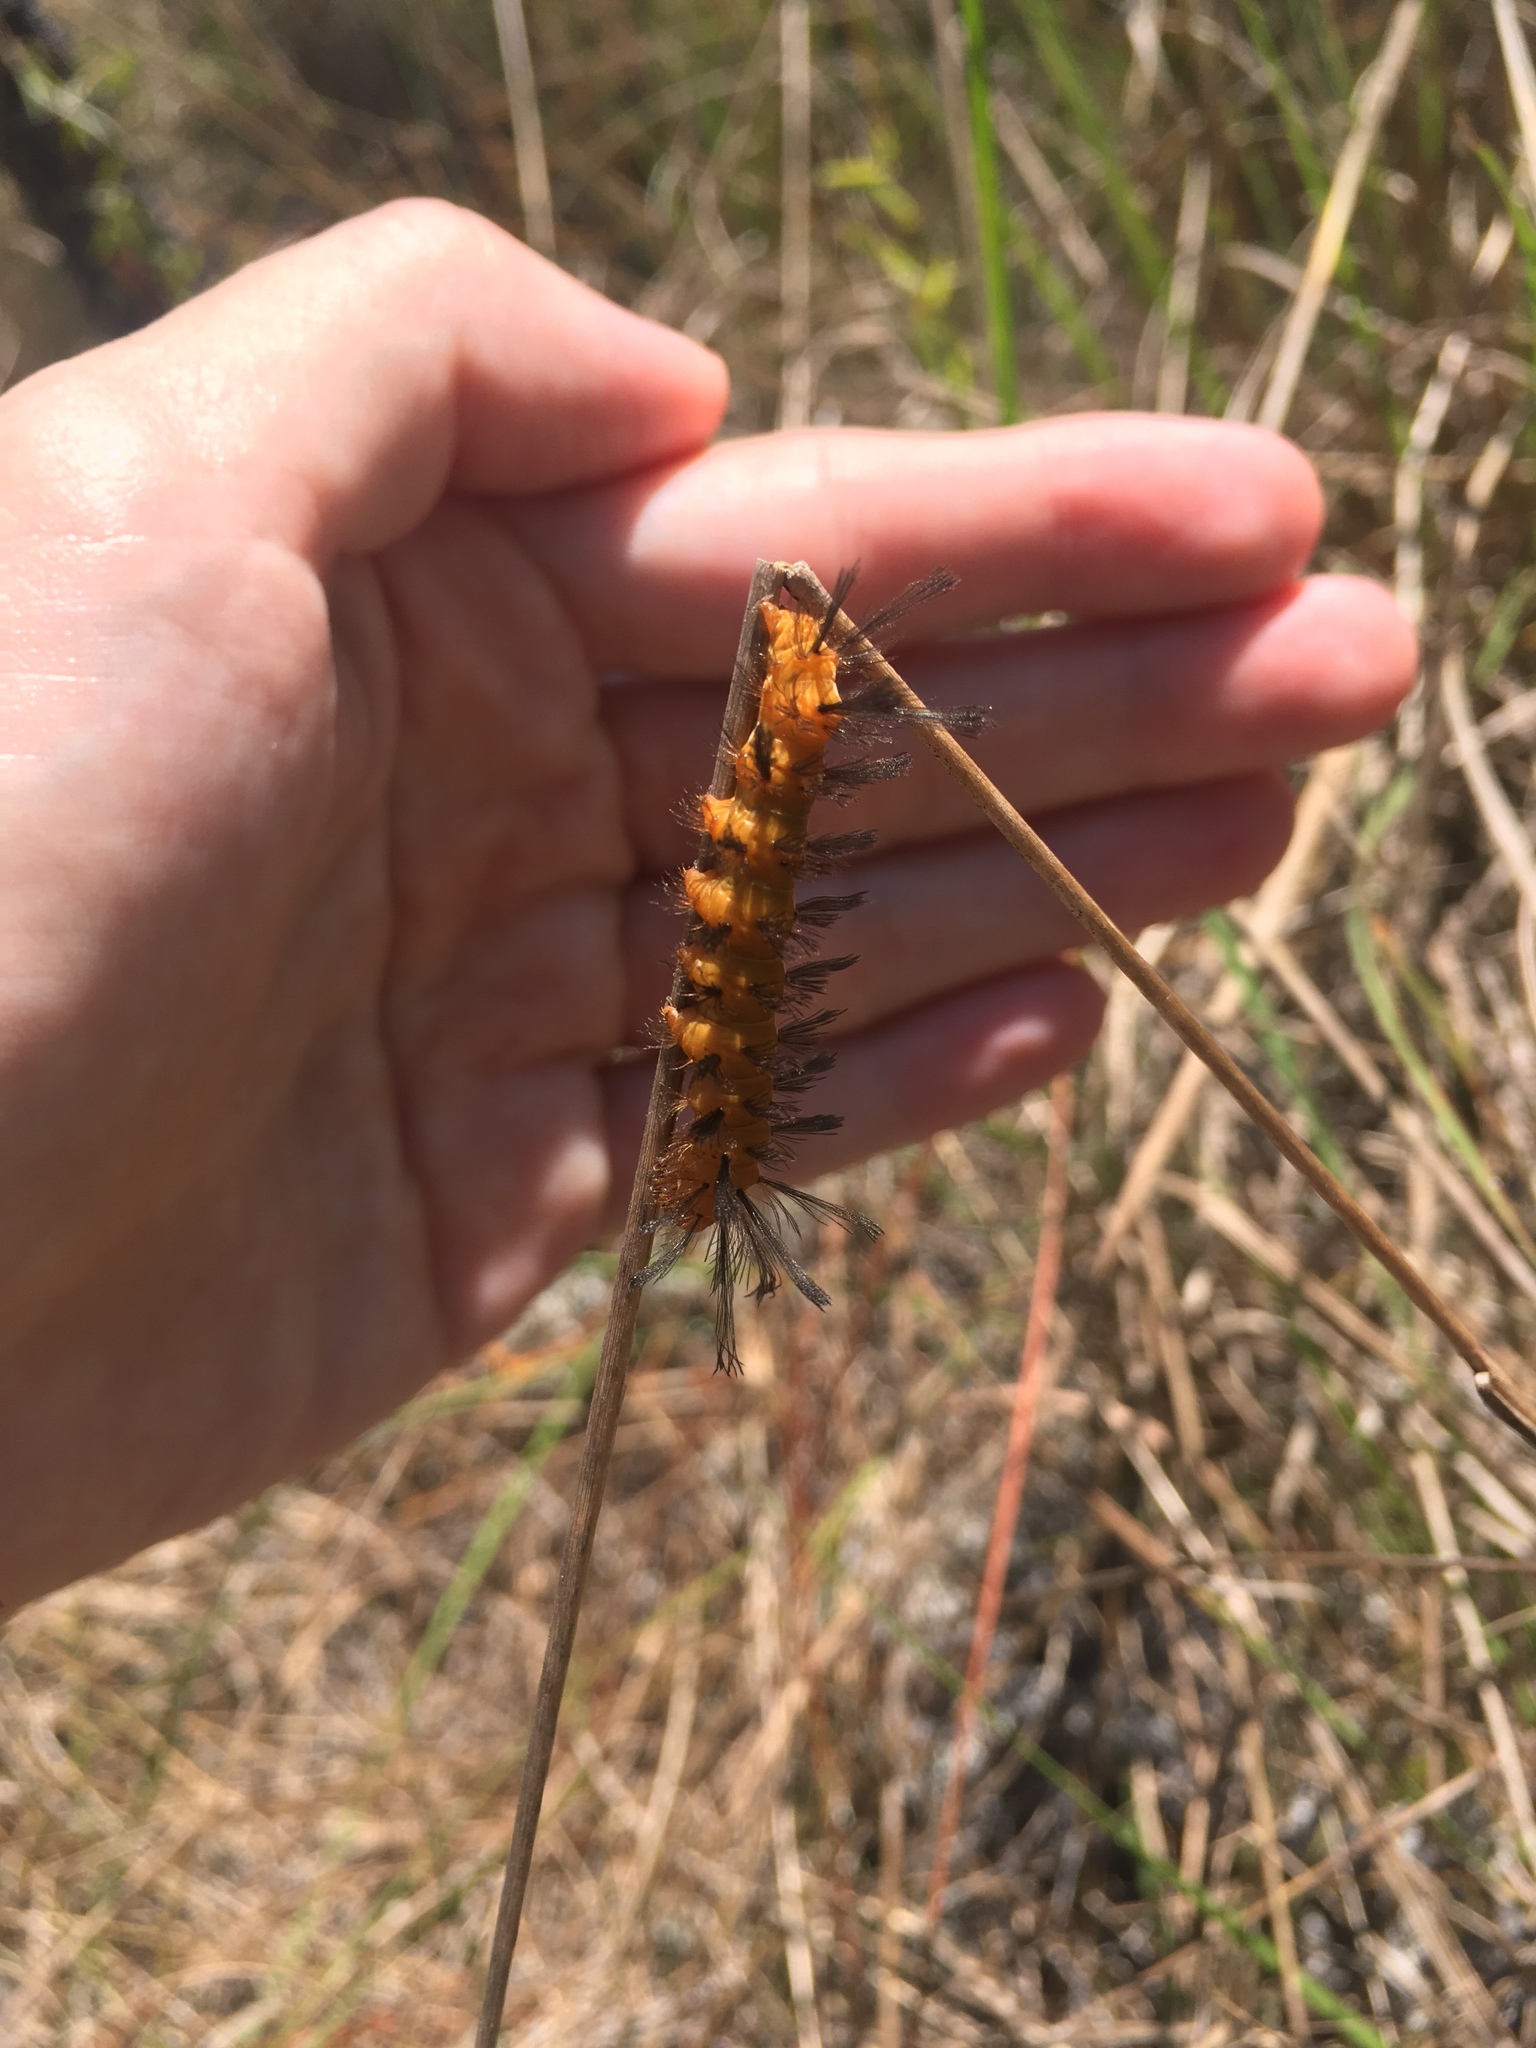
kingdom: Animalia
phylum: Arthropoda
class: Insecta
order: Lepidoptera
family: Erebidae
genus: Syntomeida
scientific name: Syntomeida epilais
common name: Polka-dot wasp moth
